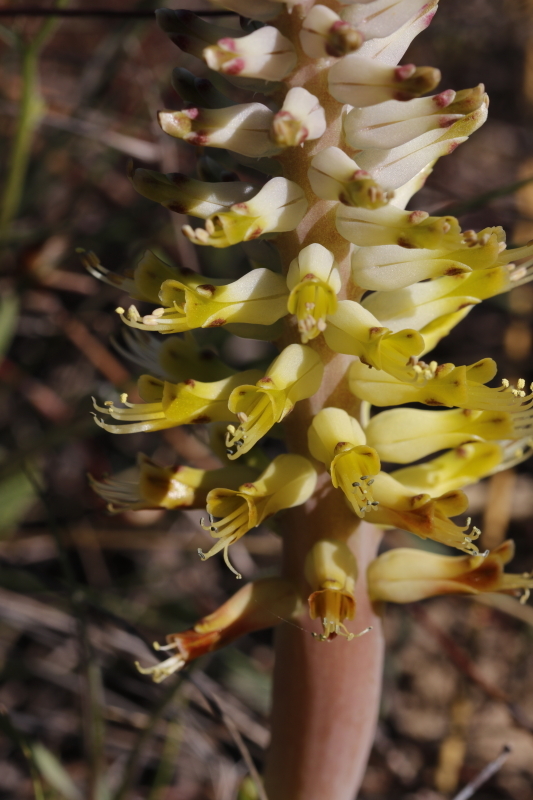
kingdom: Plantae
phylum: Tracheophyta
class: Liliopsida
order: Asparagales
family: Asparagaceae
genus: Lachenalia
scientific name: Lachenalia ventricosa
